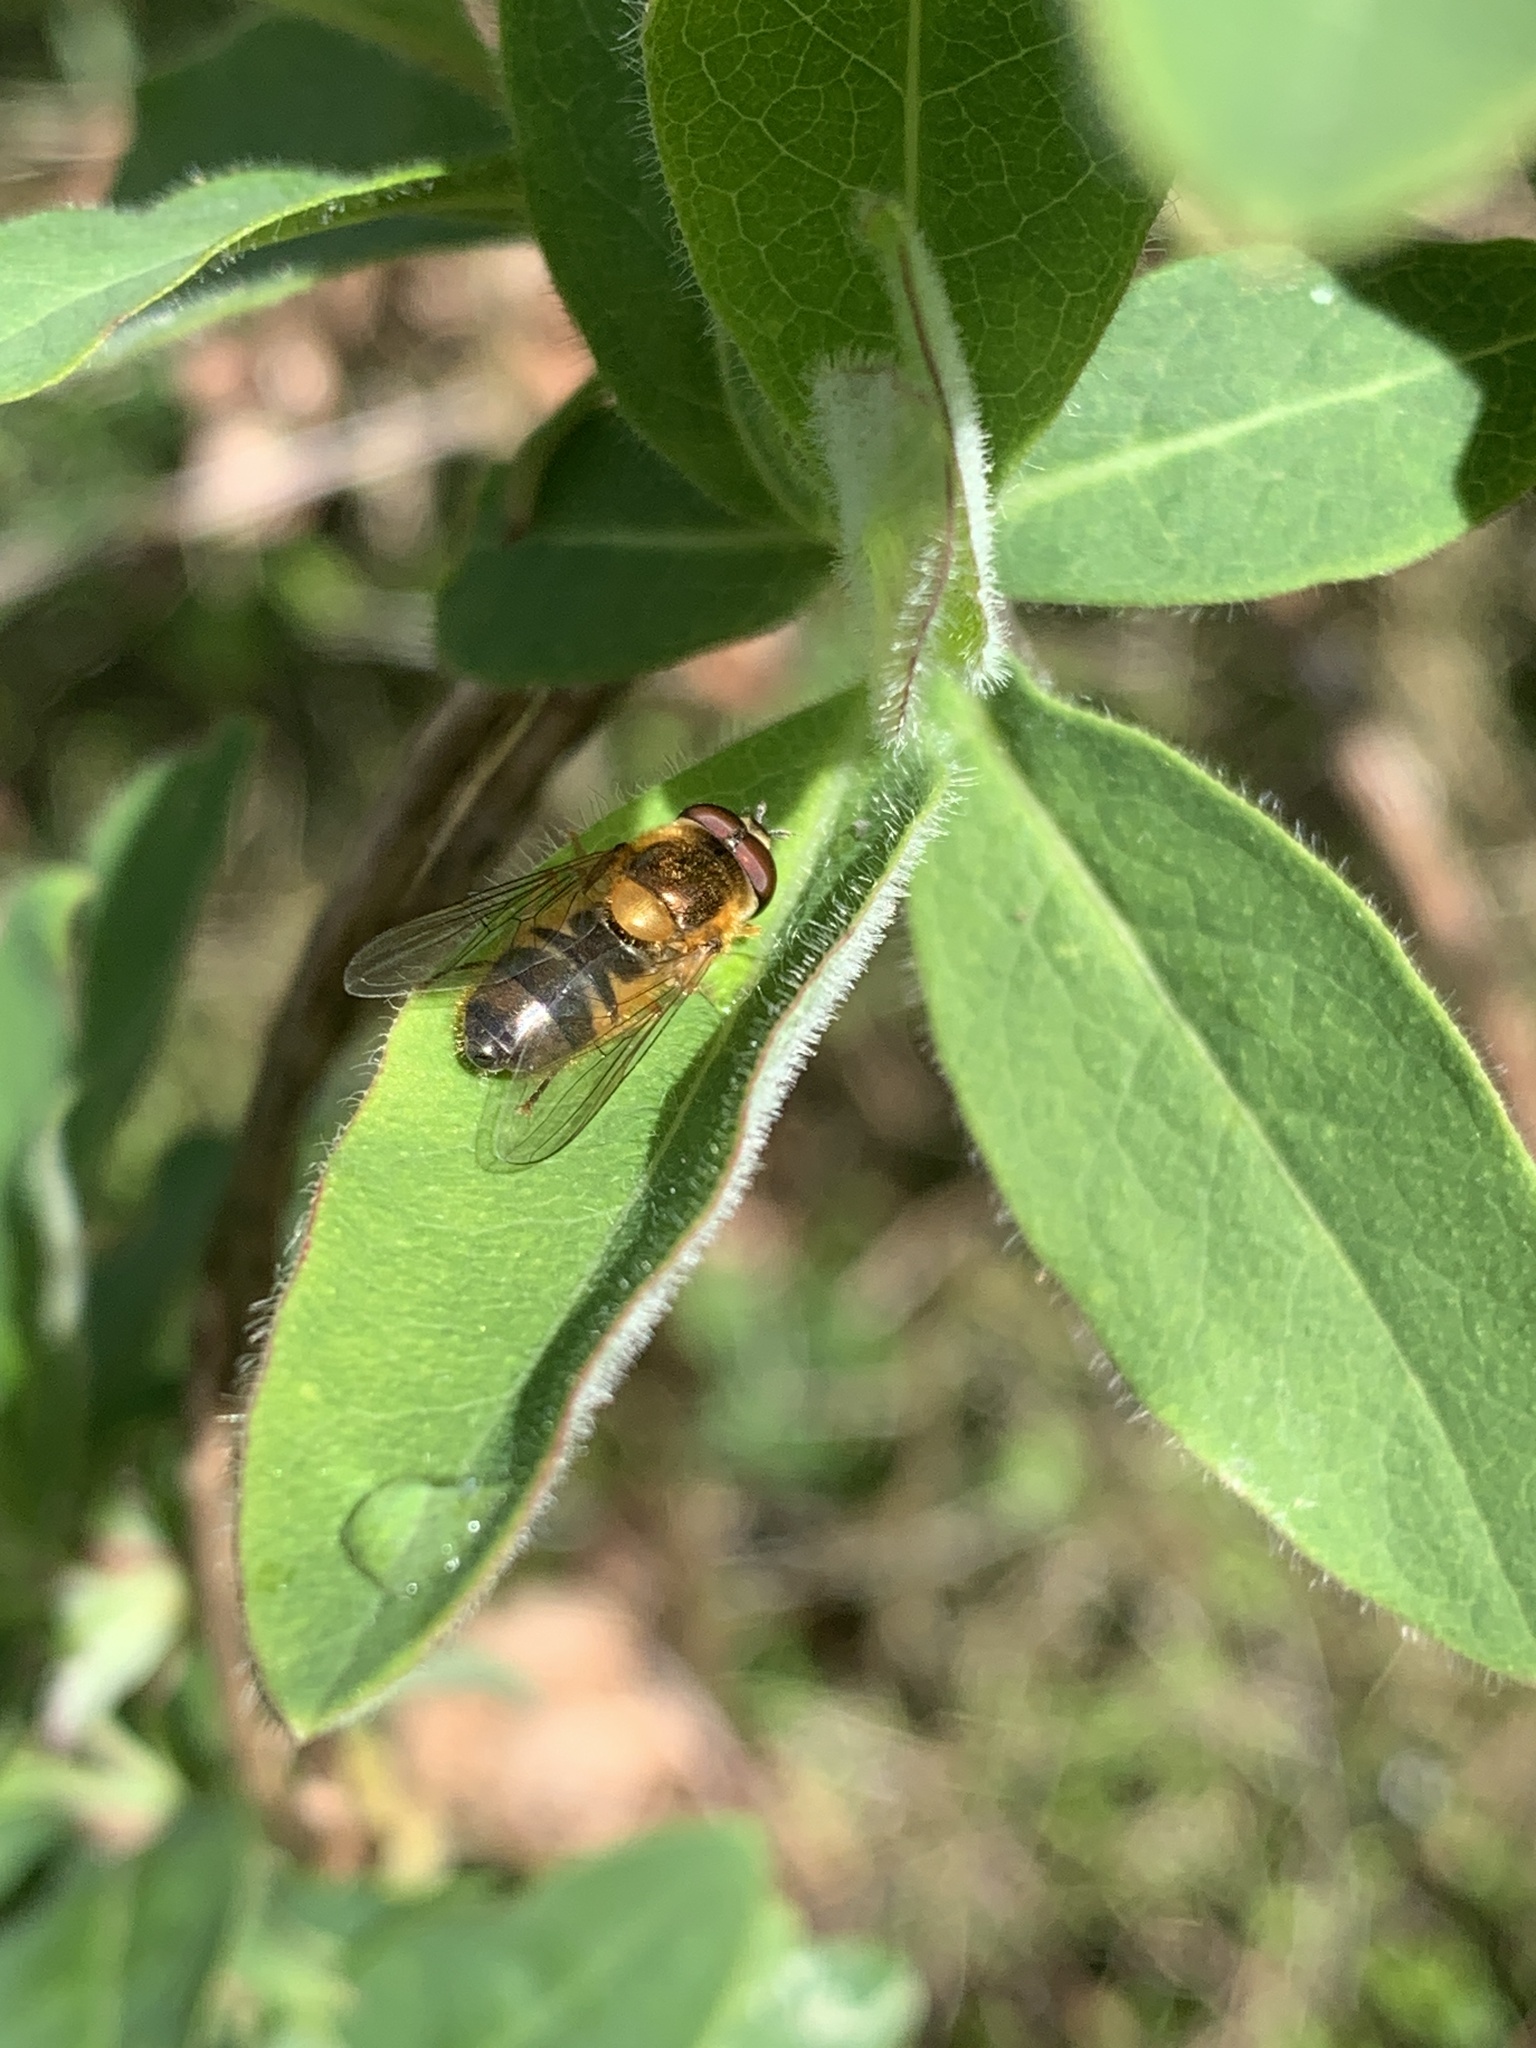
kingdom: Animalia
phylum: Arthropoda
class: Insecta
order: Diptera
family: Syrphidae
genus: Epistrophe
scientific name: Epistrophe eligans
